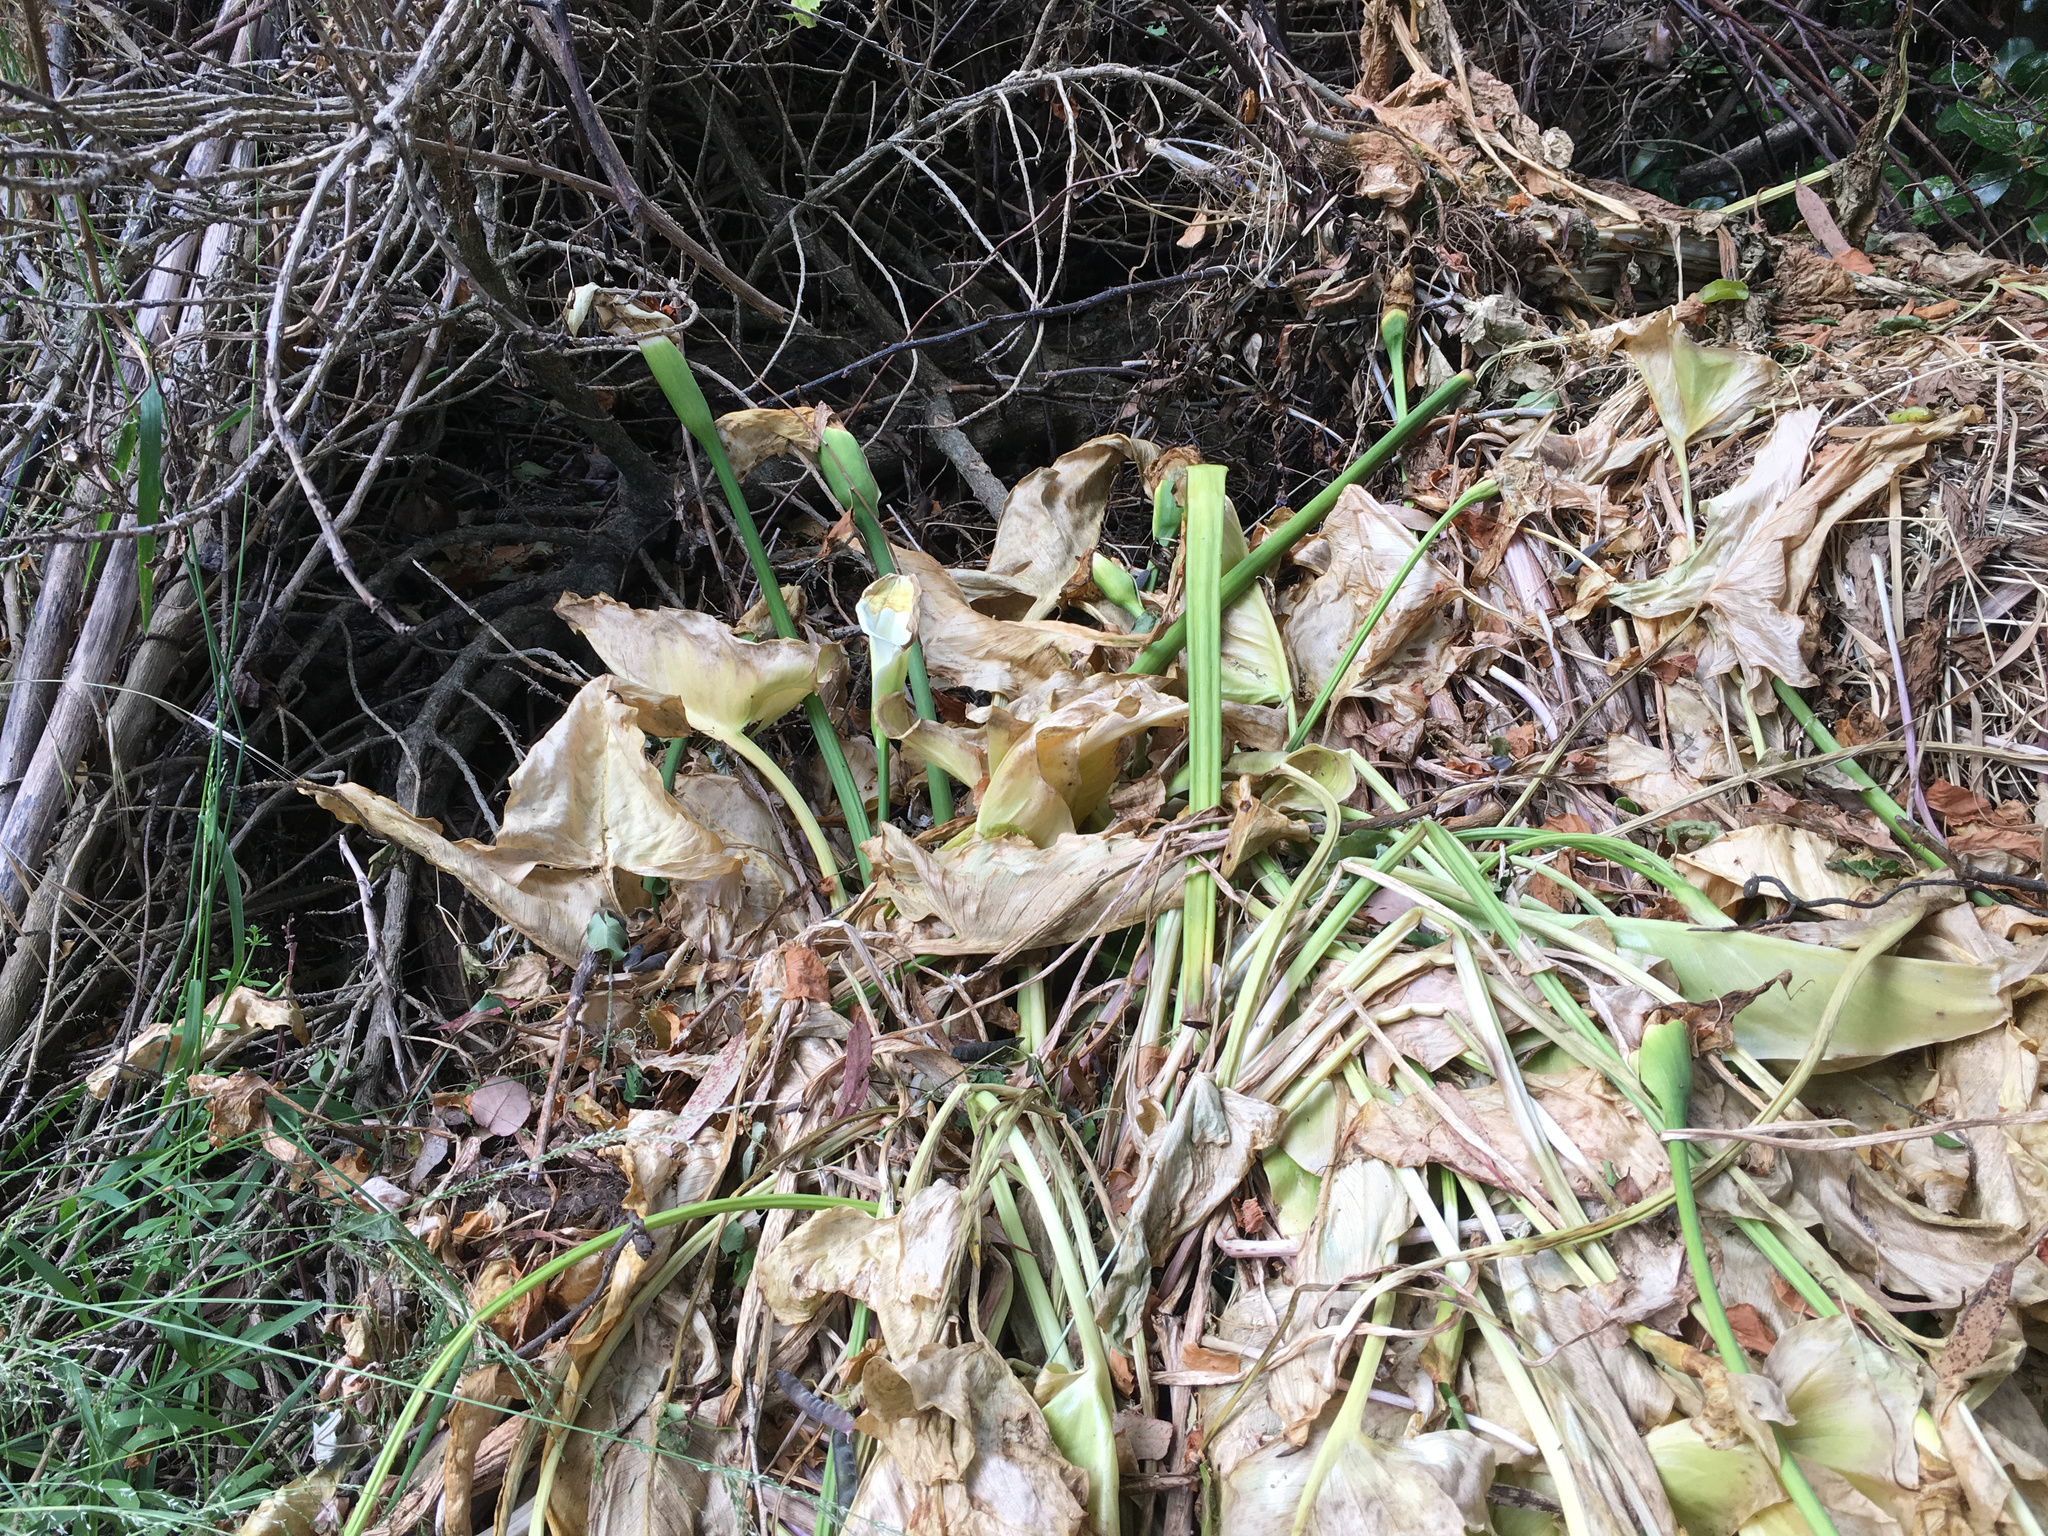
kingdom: Plantae
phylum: Tracheophyta
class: Liliopsida
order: Alismatales
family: Araceae
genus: Zantedeschia
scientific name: Zantedeschia aethiopica
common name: Altar-lily
